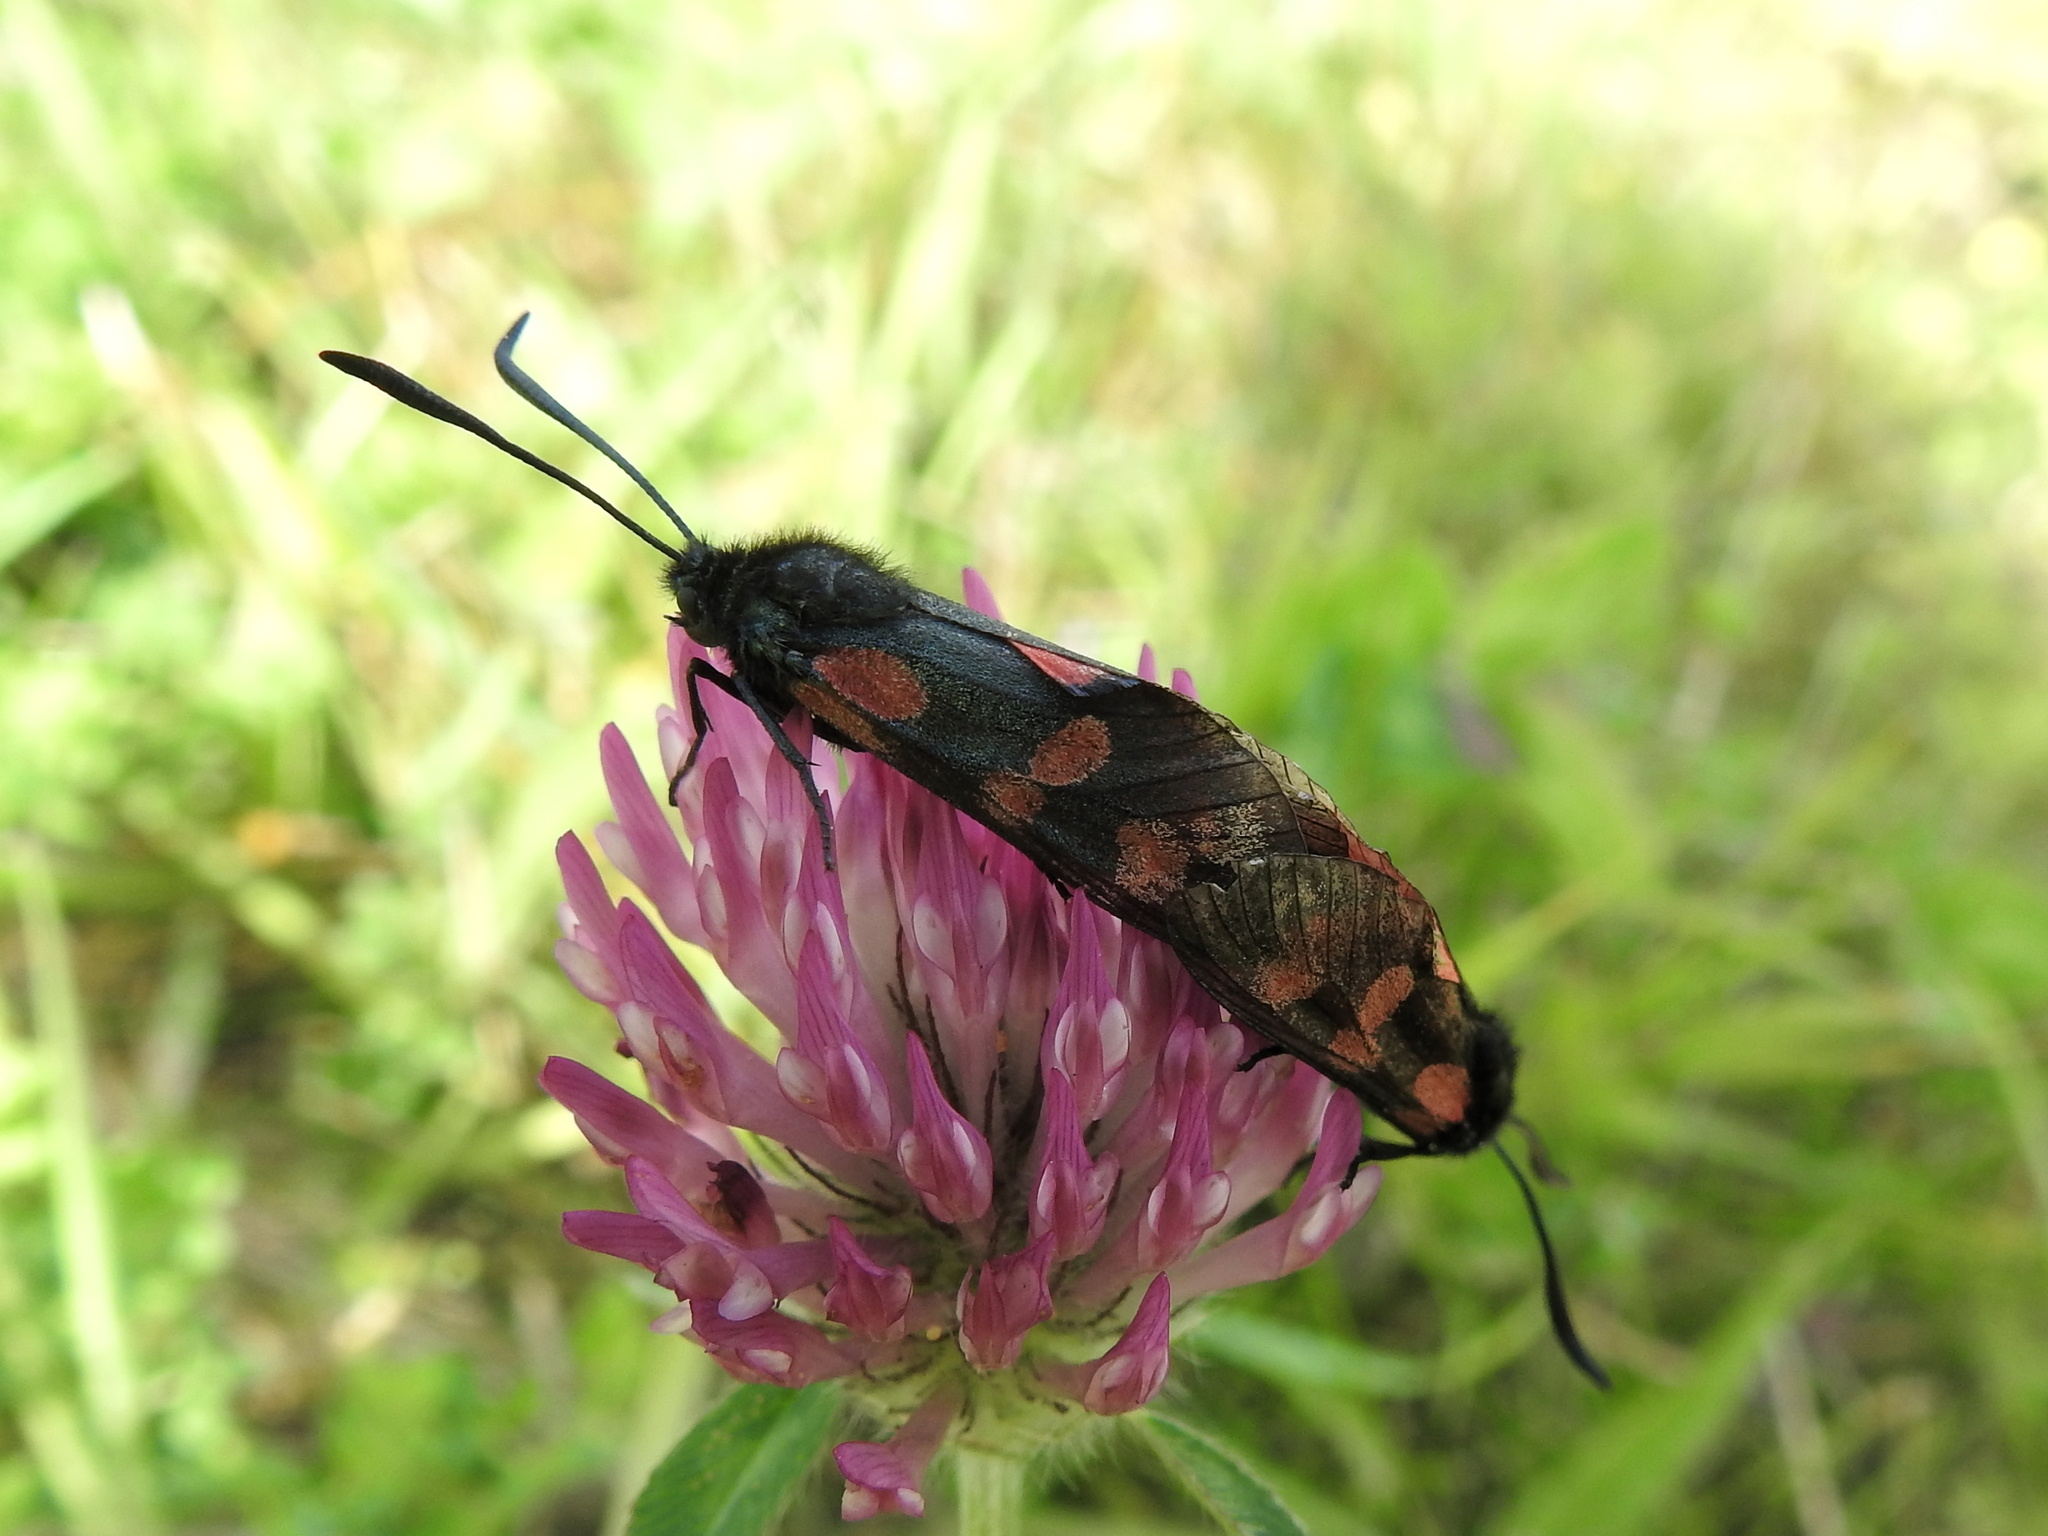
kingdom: Animalia
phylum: Arthropoda
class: Insecta
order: Lepidoptera
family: Zygaenidae
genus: Zygaena
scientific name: Zygaena filipendulae
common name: Six-spot burnet
